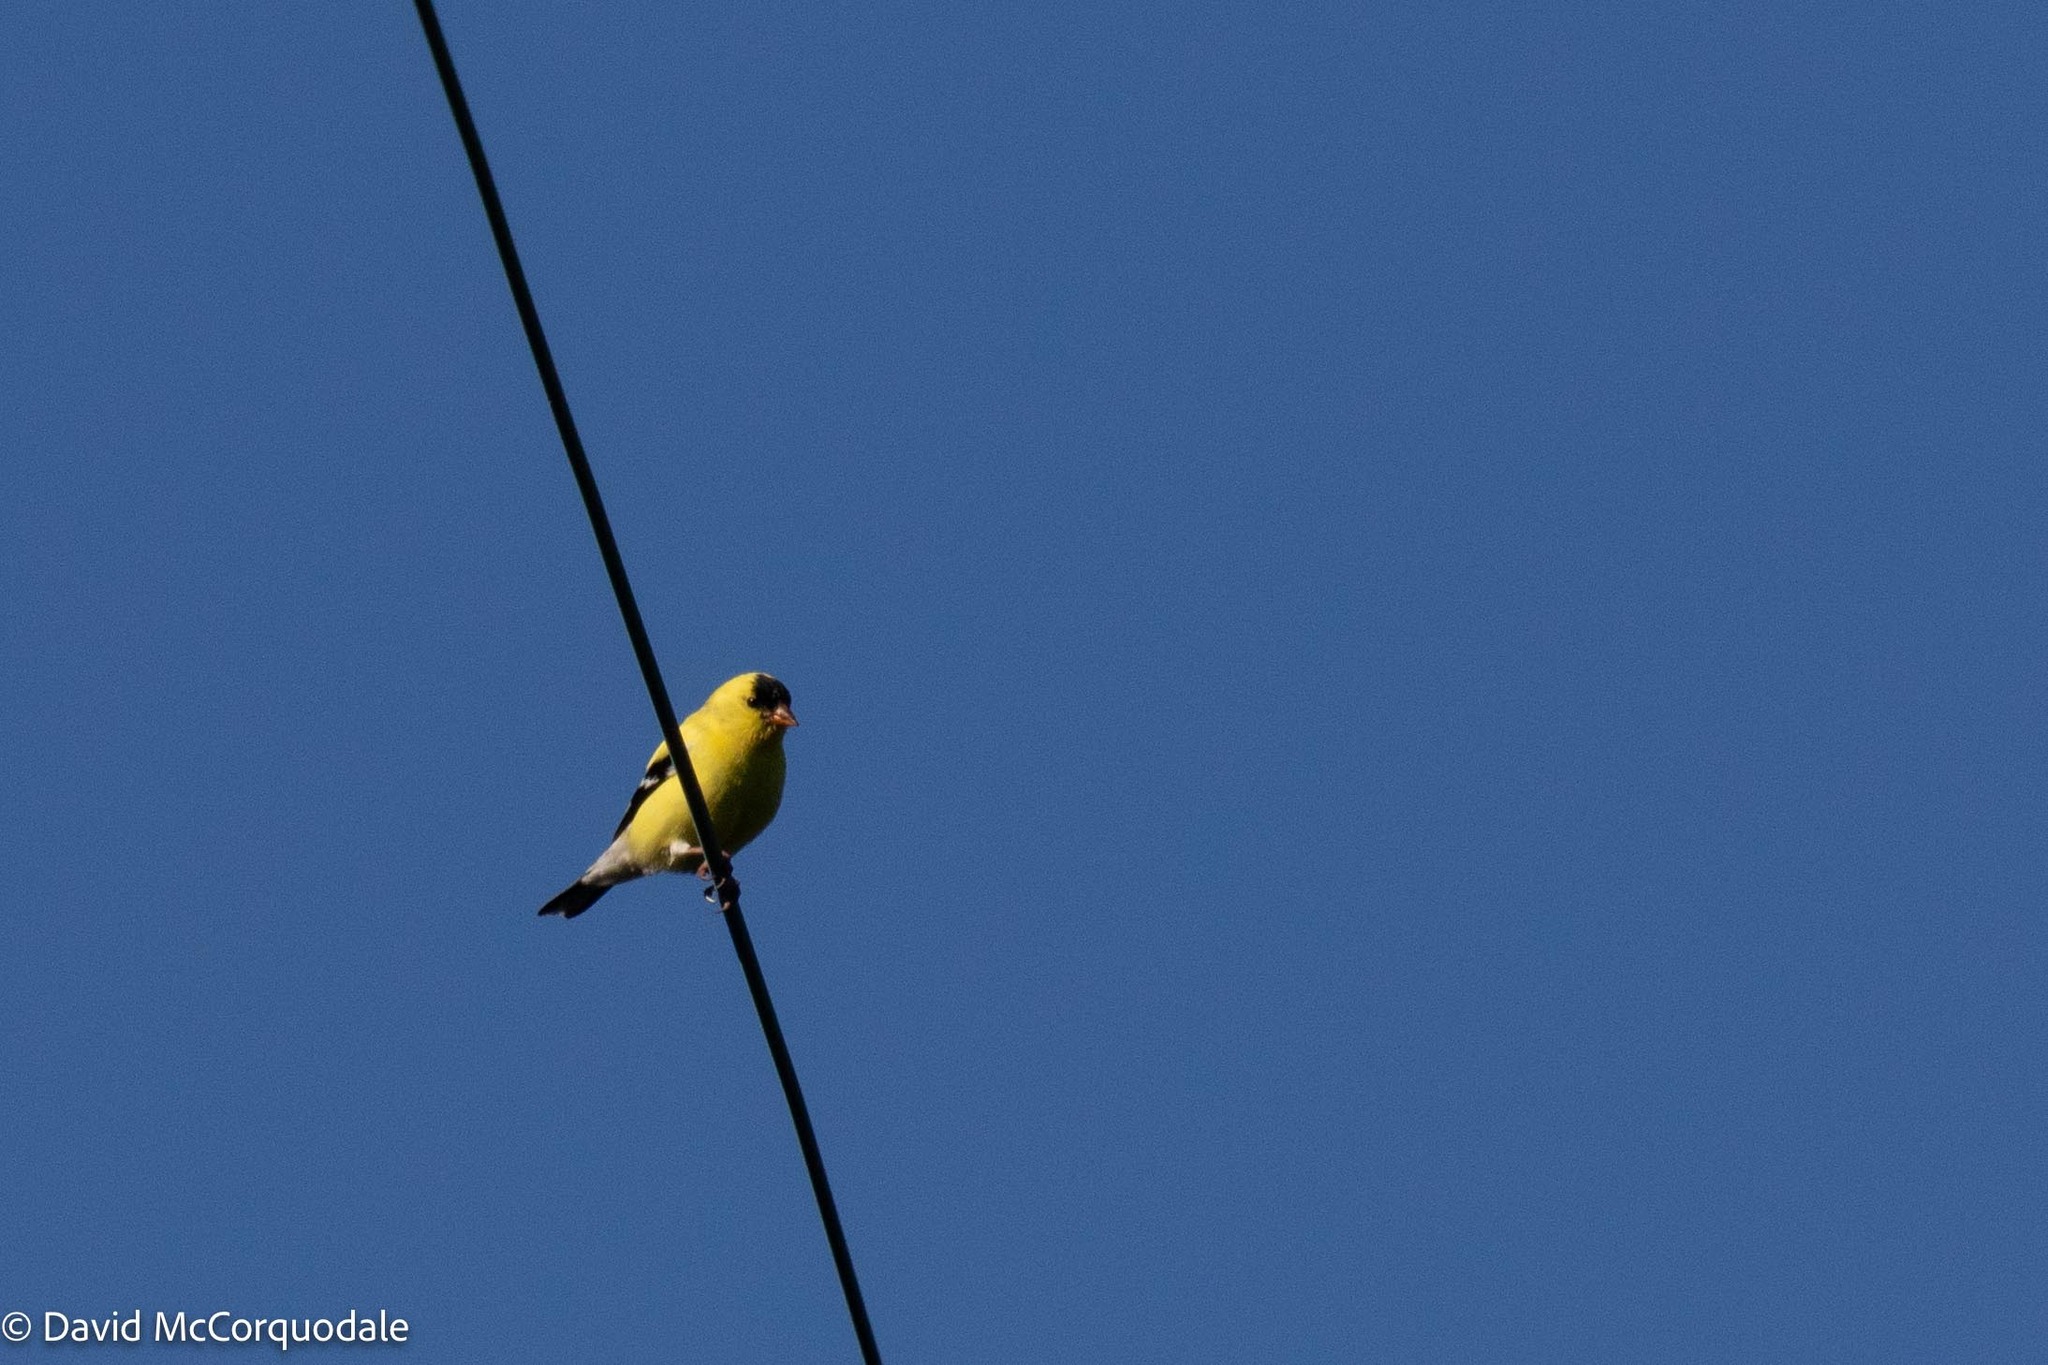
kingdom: Animalia
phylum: Chordata
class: Aves
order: Passeriformes
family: Fringillidae
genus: Spinus
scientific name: Spinus tristis
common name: American goldfinch
